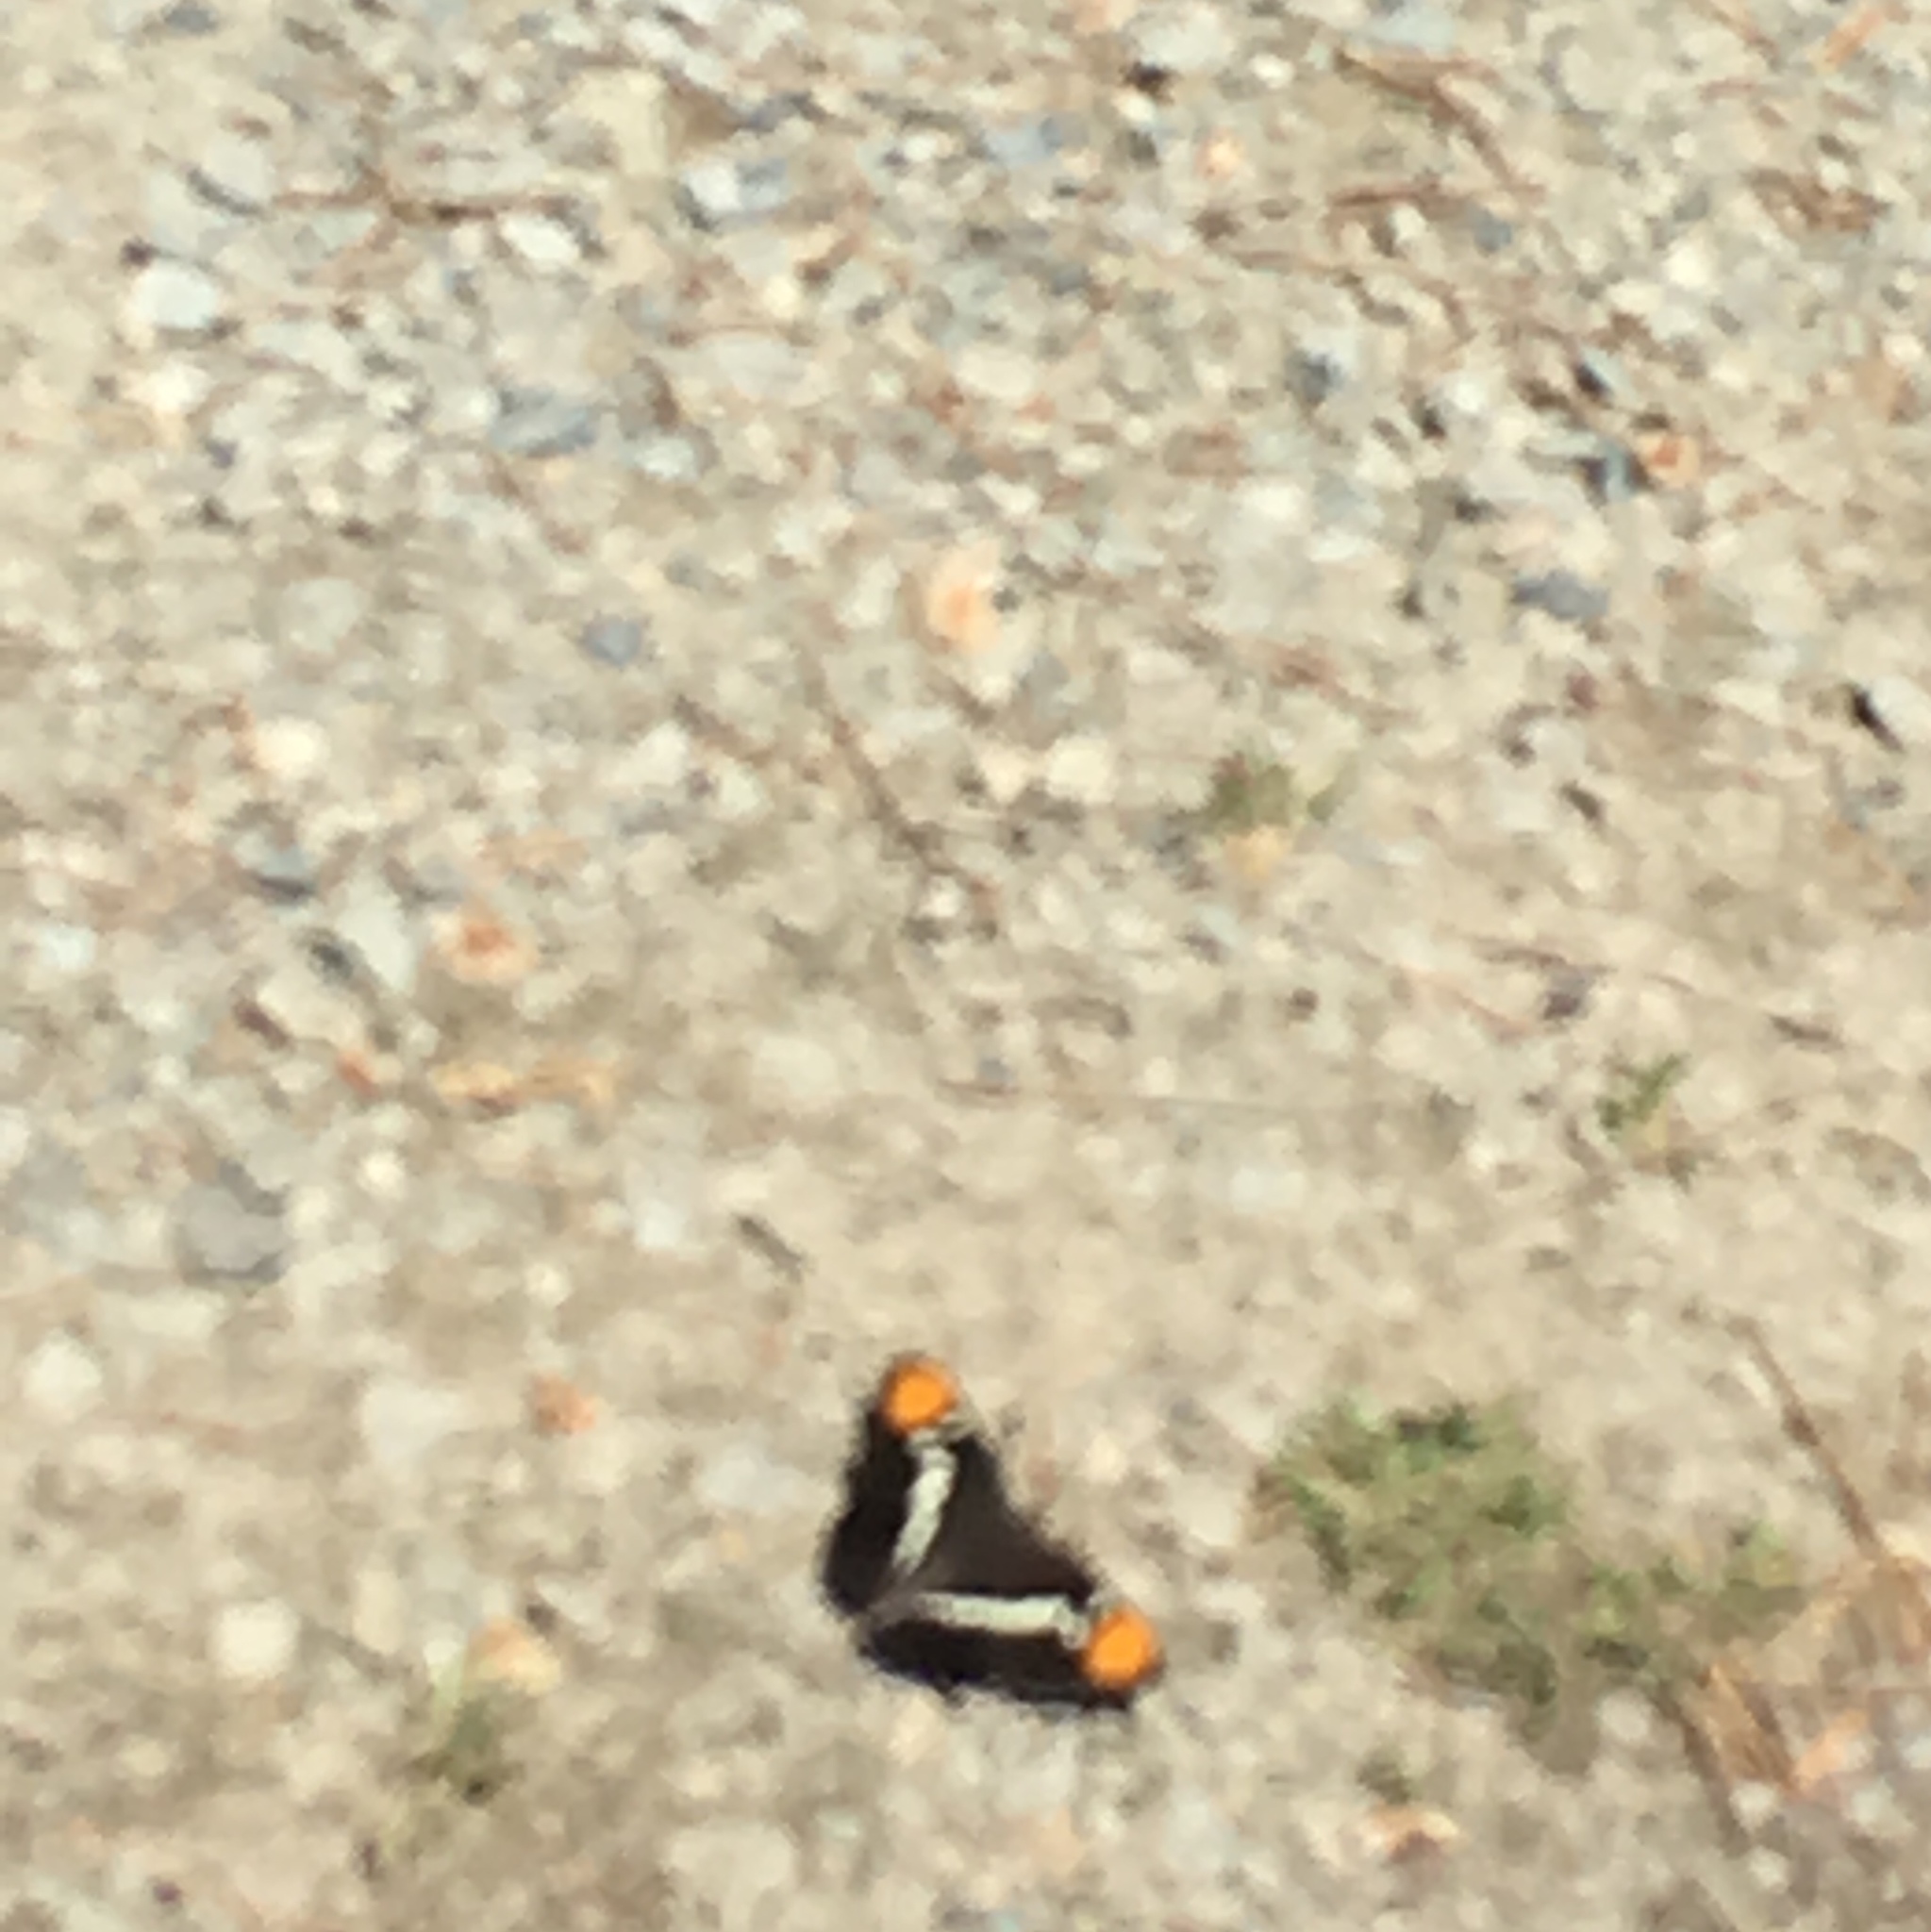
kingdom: Animalia
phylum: Arthropoda
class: Insecta
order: Lepidoptera
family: Nymphalidae
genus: Limenitis
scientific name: Limenitis bredowii
